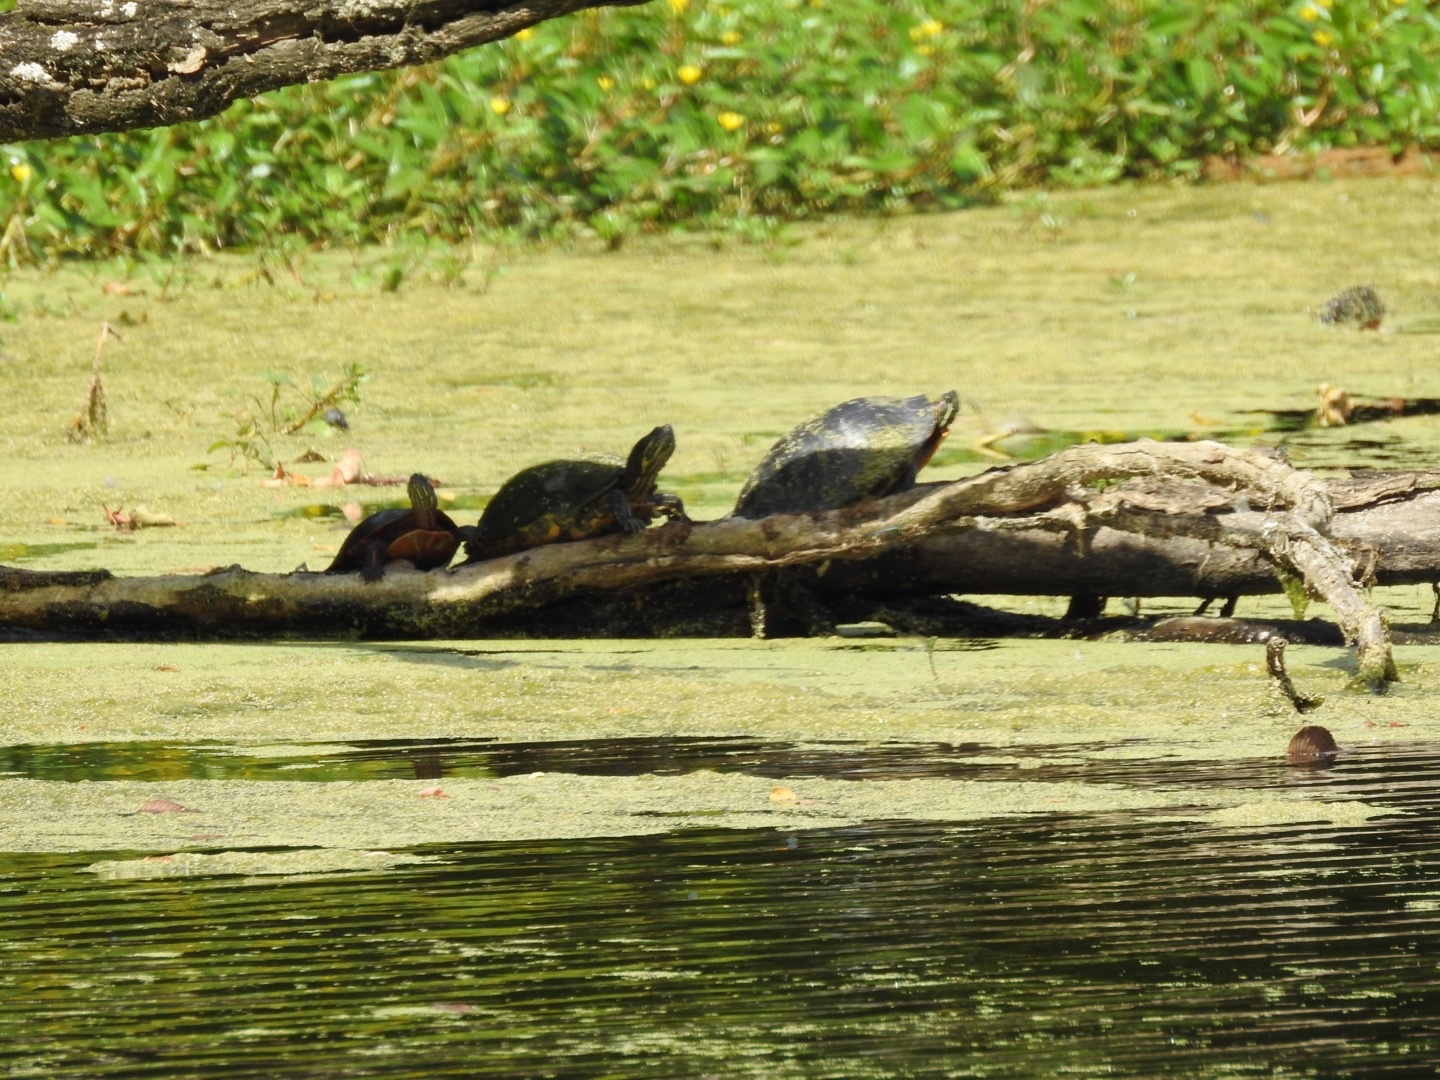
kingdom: Animalia
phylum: Chordata
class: Testudines
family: Emydidae
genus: Trachemys
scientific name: Trachemys scripta
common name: Slider
